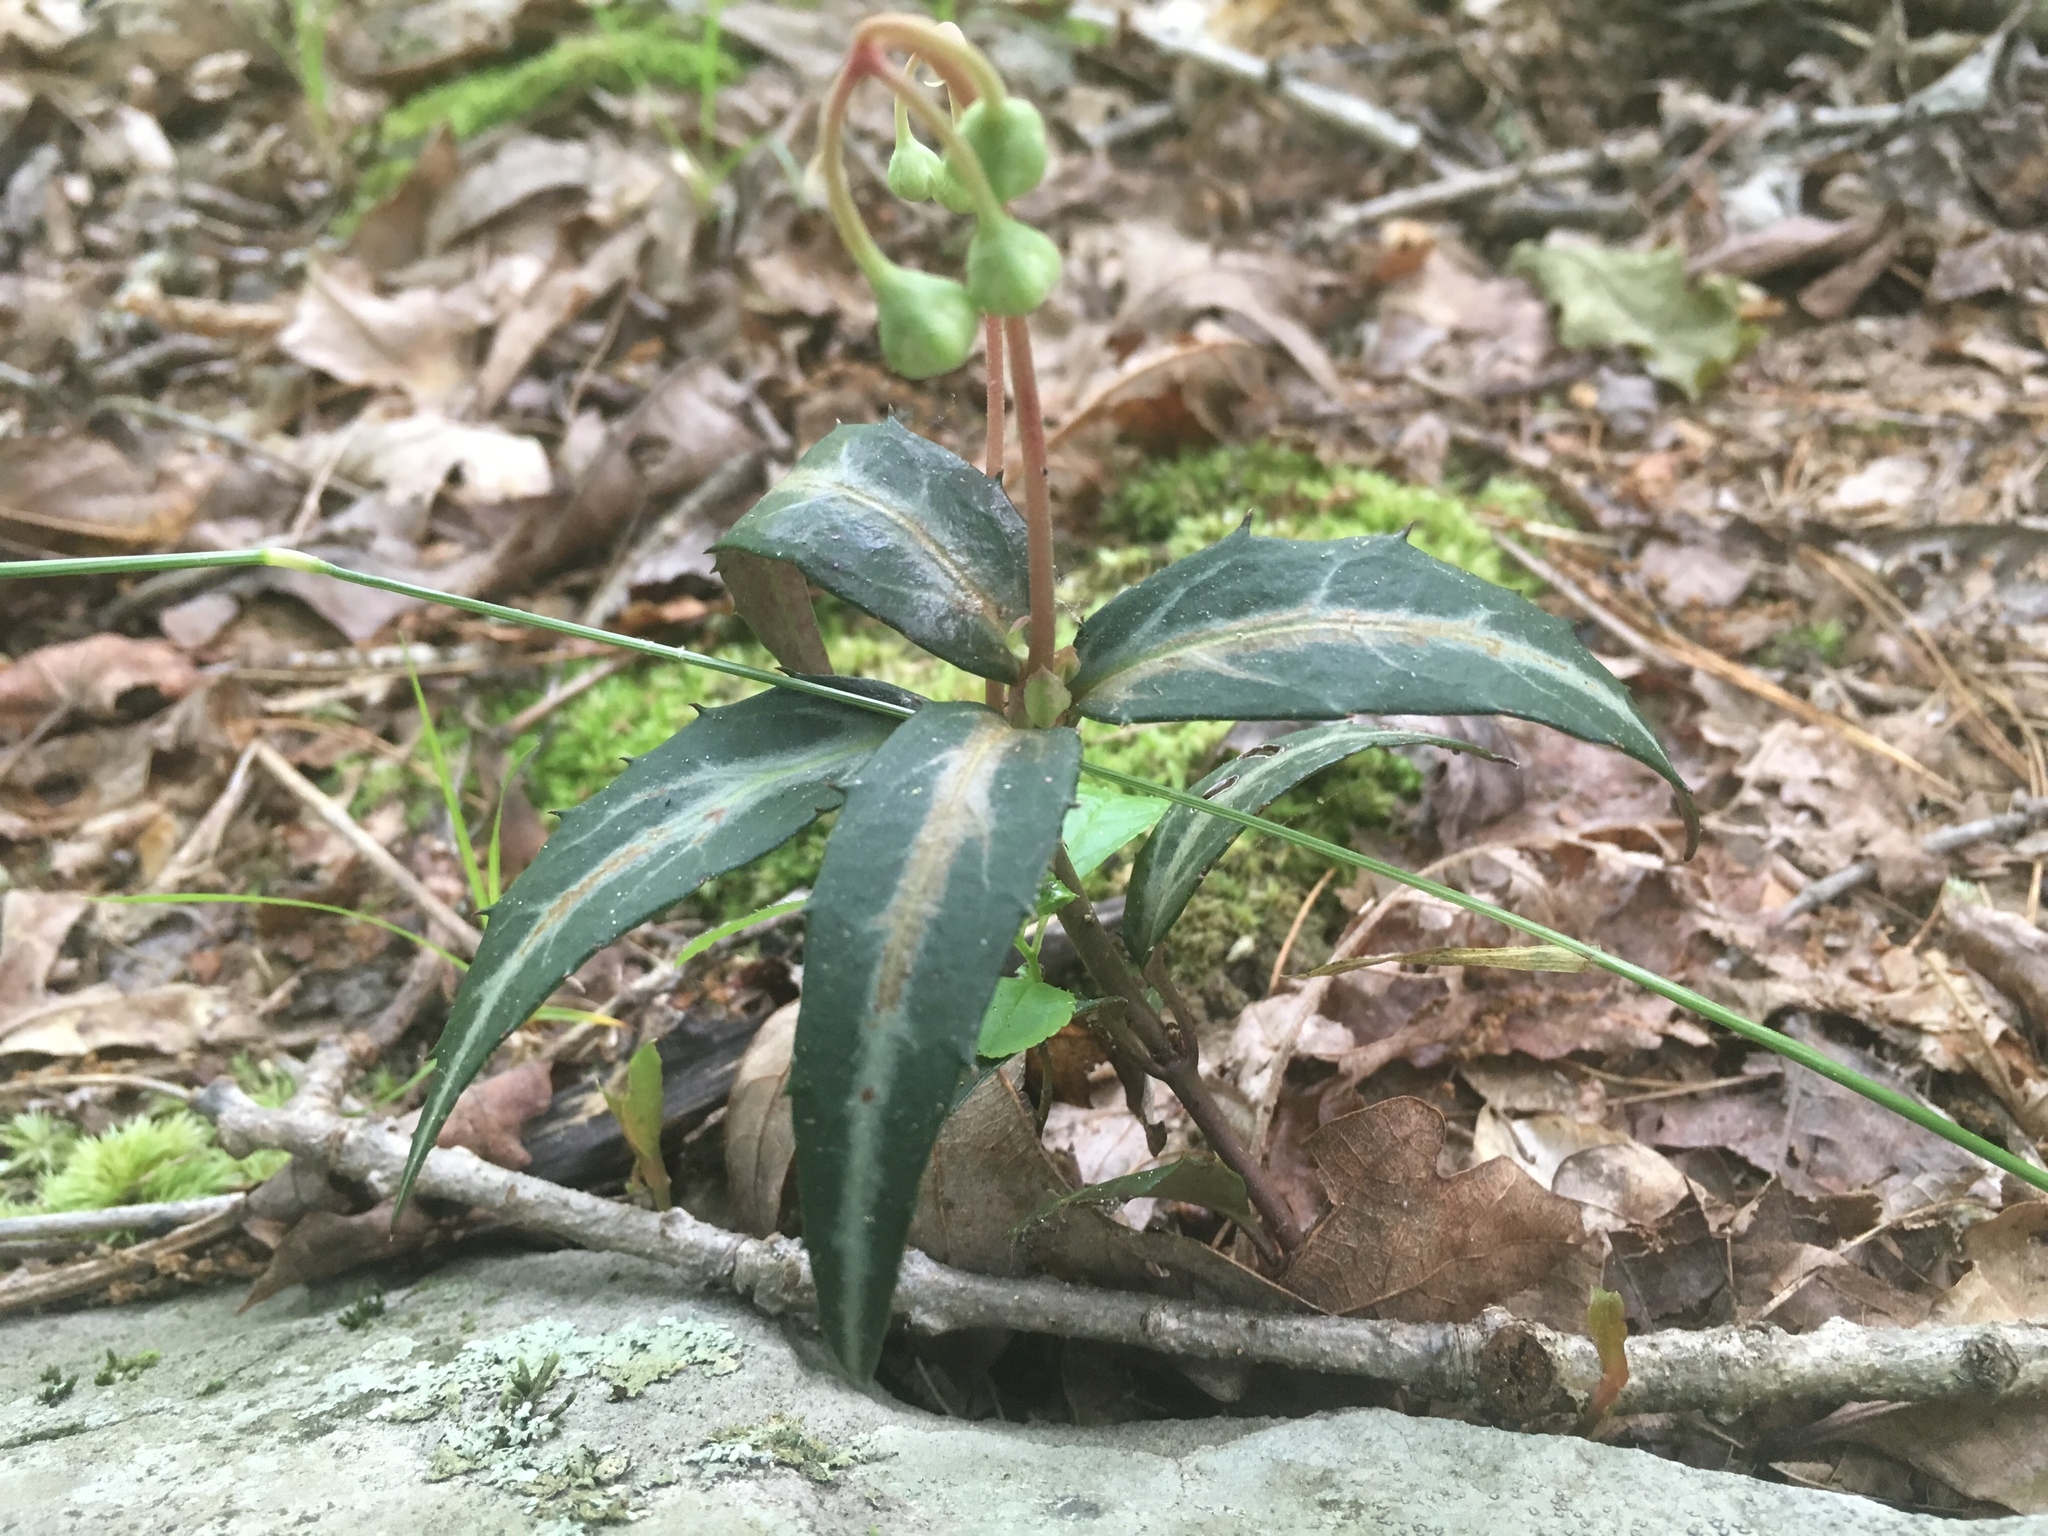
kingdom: Plantae
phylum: Tracheophyta
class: Magnoliopsida
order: Ericales
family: Ericaceae
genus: Chimaphila
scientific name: Chimaphila maculata
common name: Spotted pipsissewa
